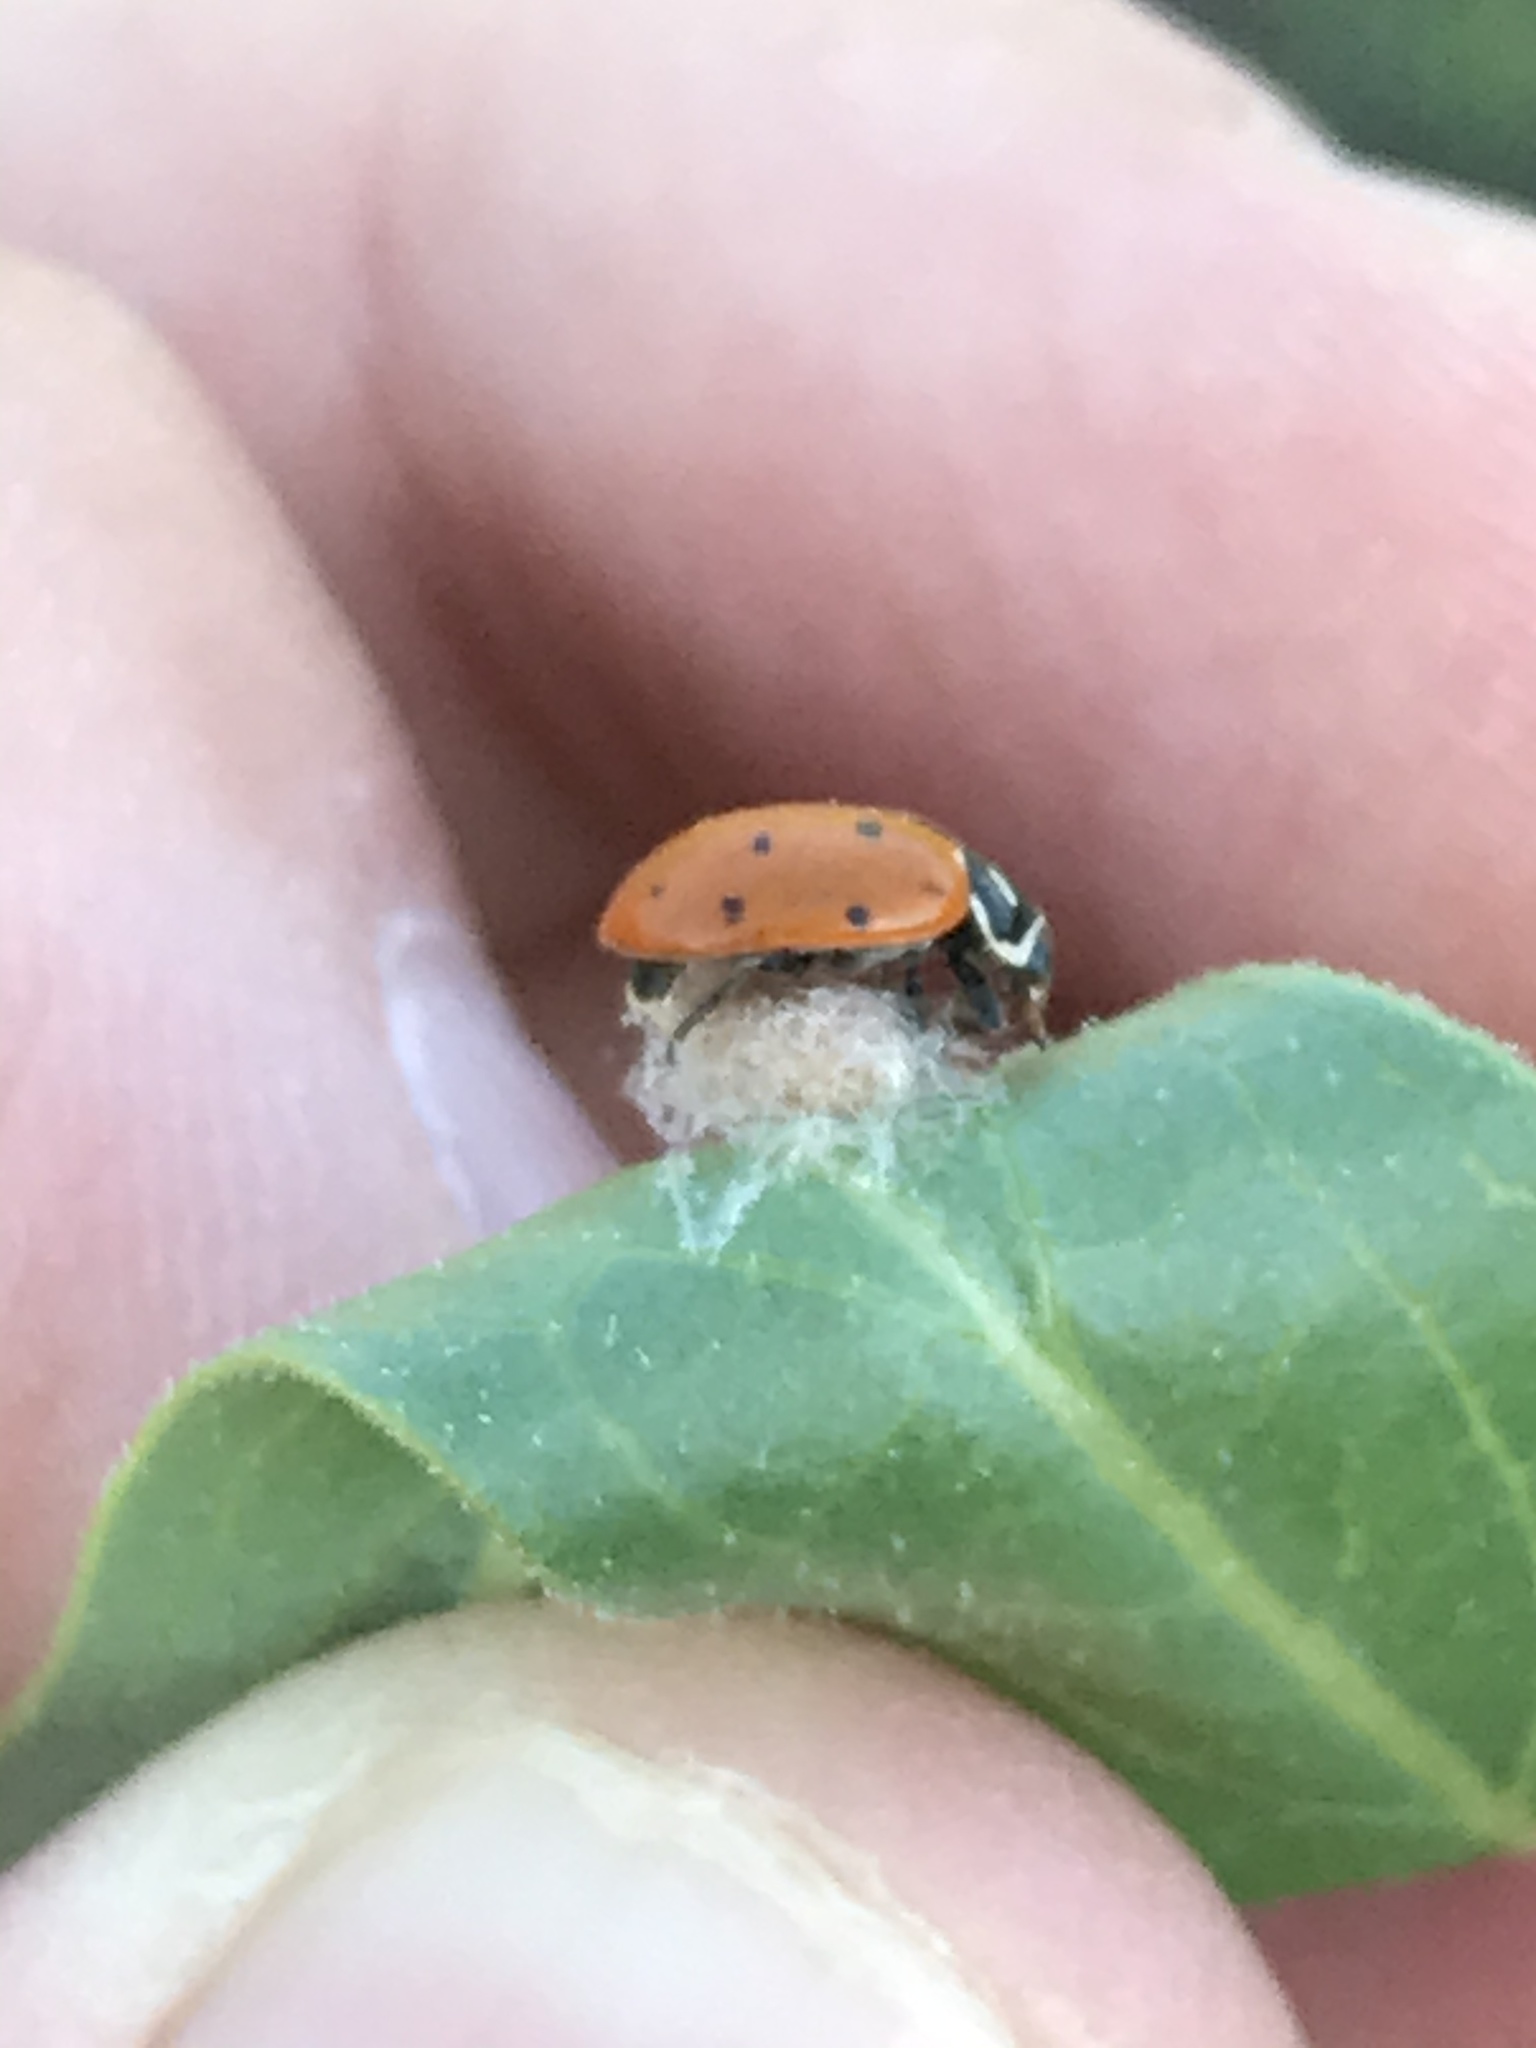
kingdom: Animalia
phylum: Arthropoda
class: Insecta
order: Hymenoptera
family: Braconidae
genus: Dinocampus
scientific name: Dinocampus coccinellae
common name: Braconid wasp
